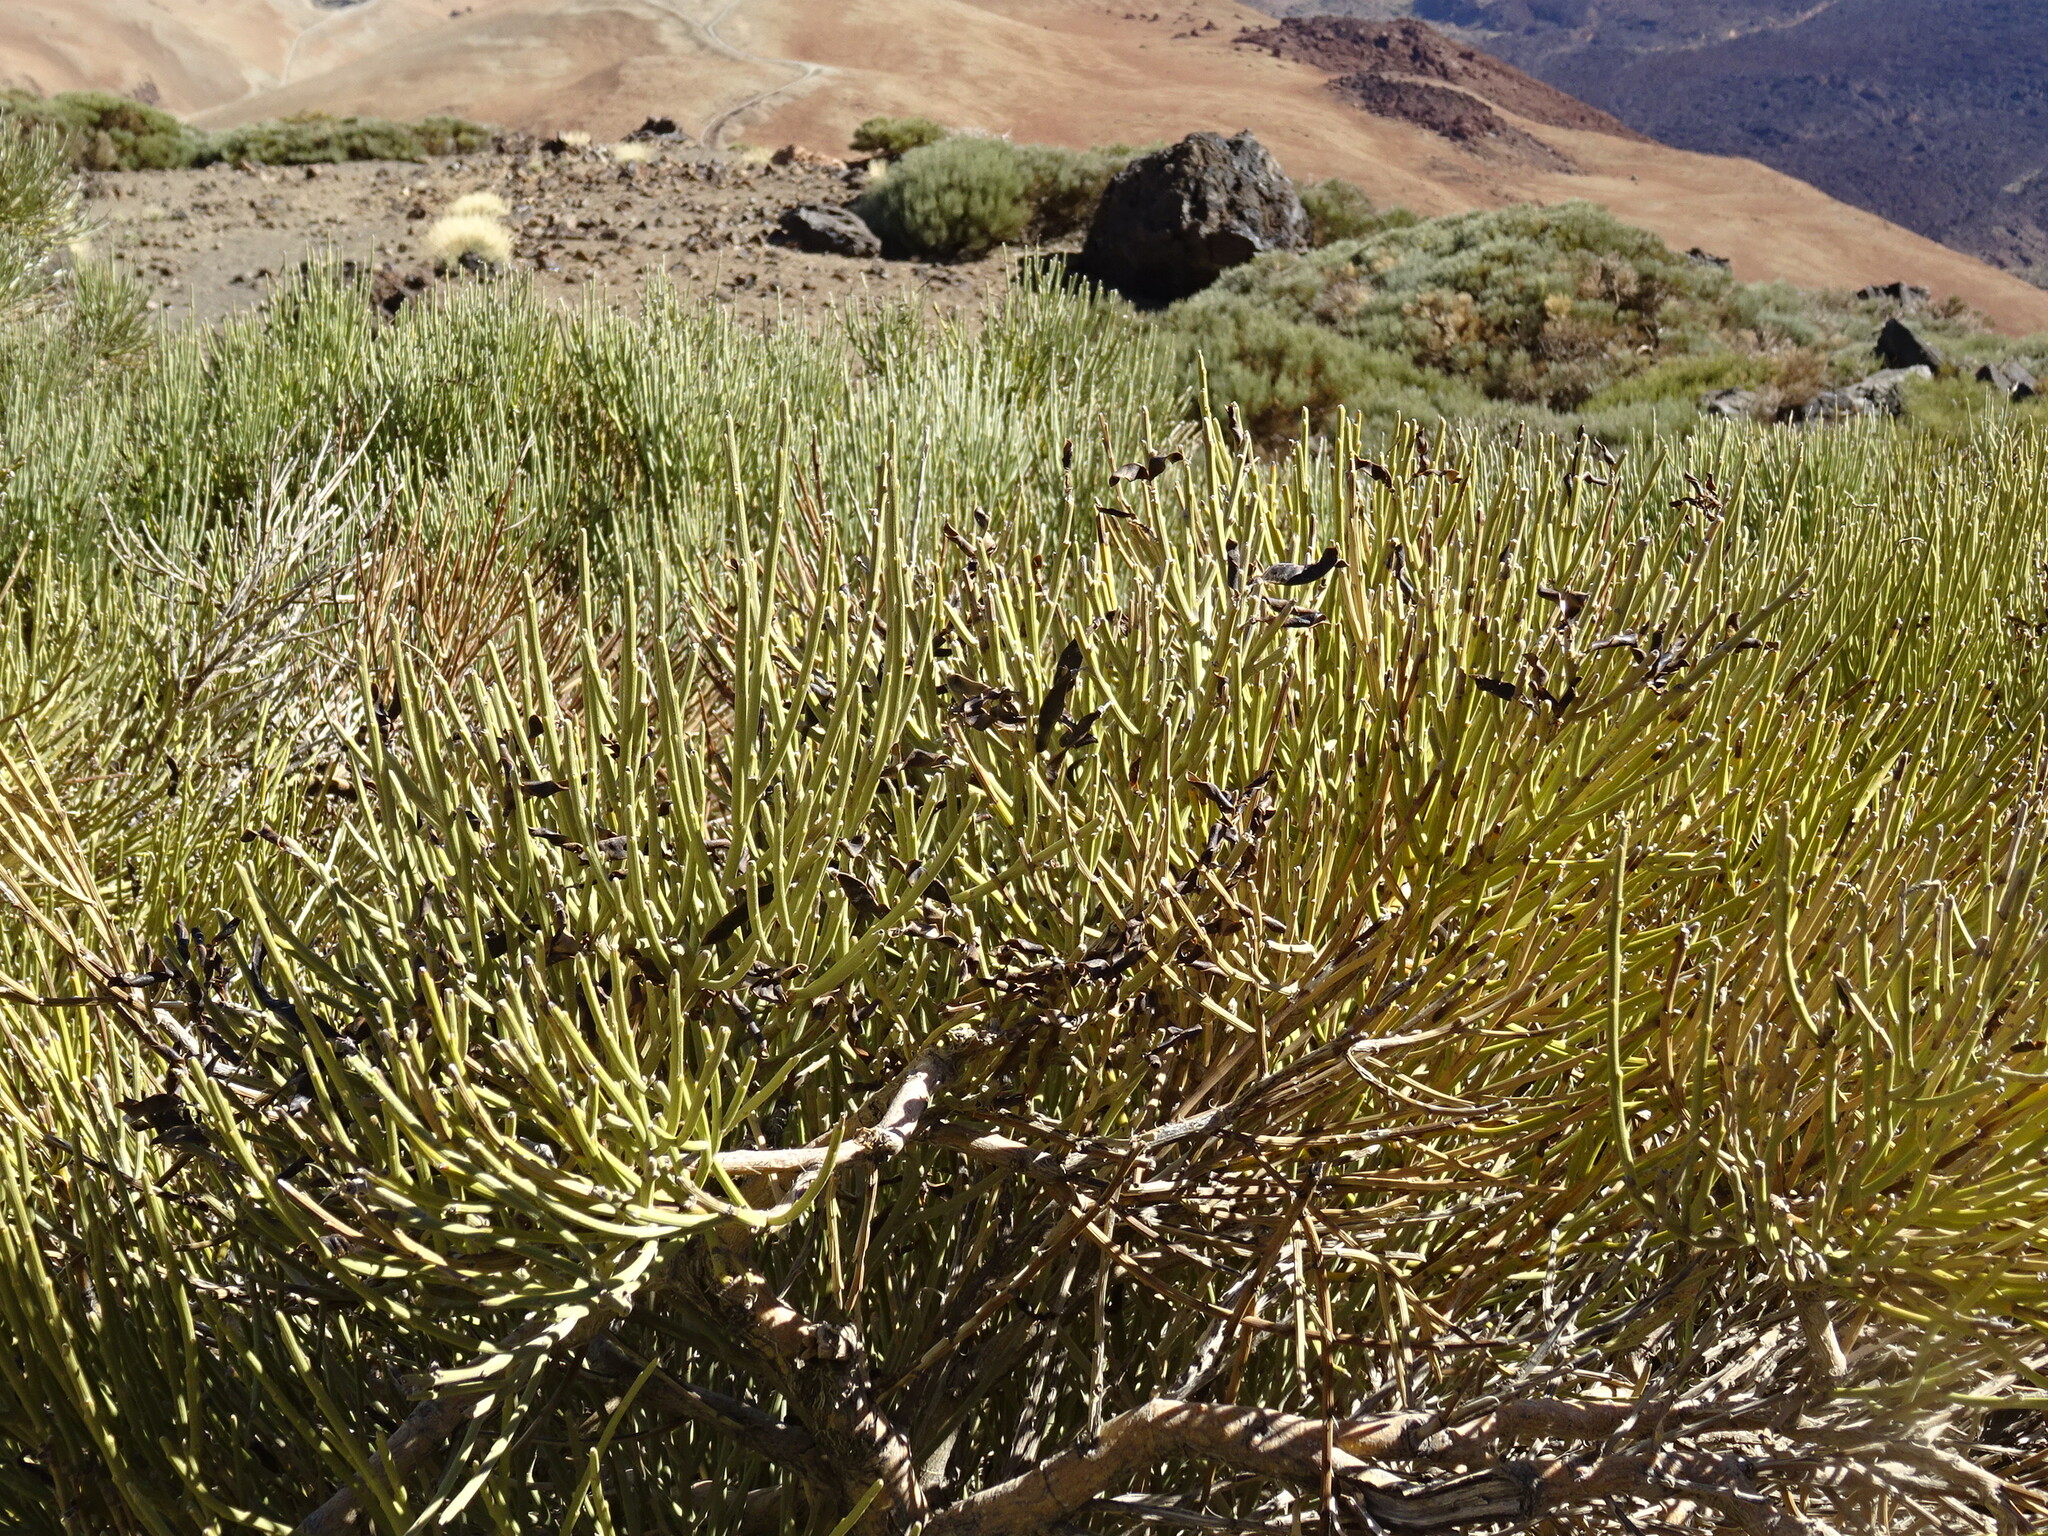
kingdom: Plantae
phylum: Tracheophyta
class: Magnoliopsida
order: Fabales
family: Fabaceae
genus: Cytisus
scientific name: Cytisus supranubius
